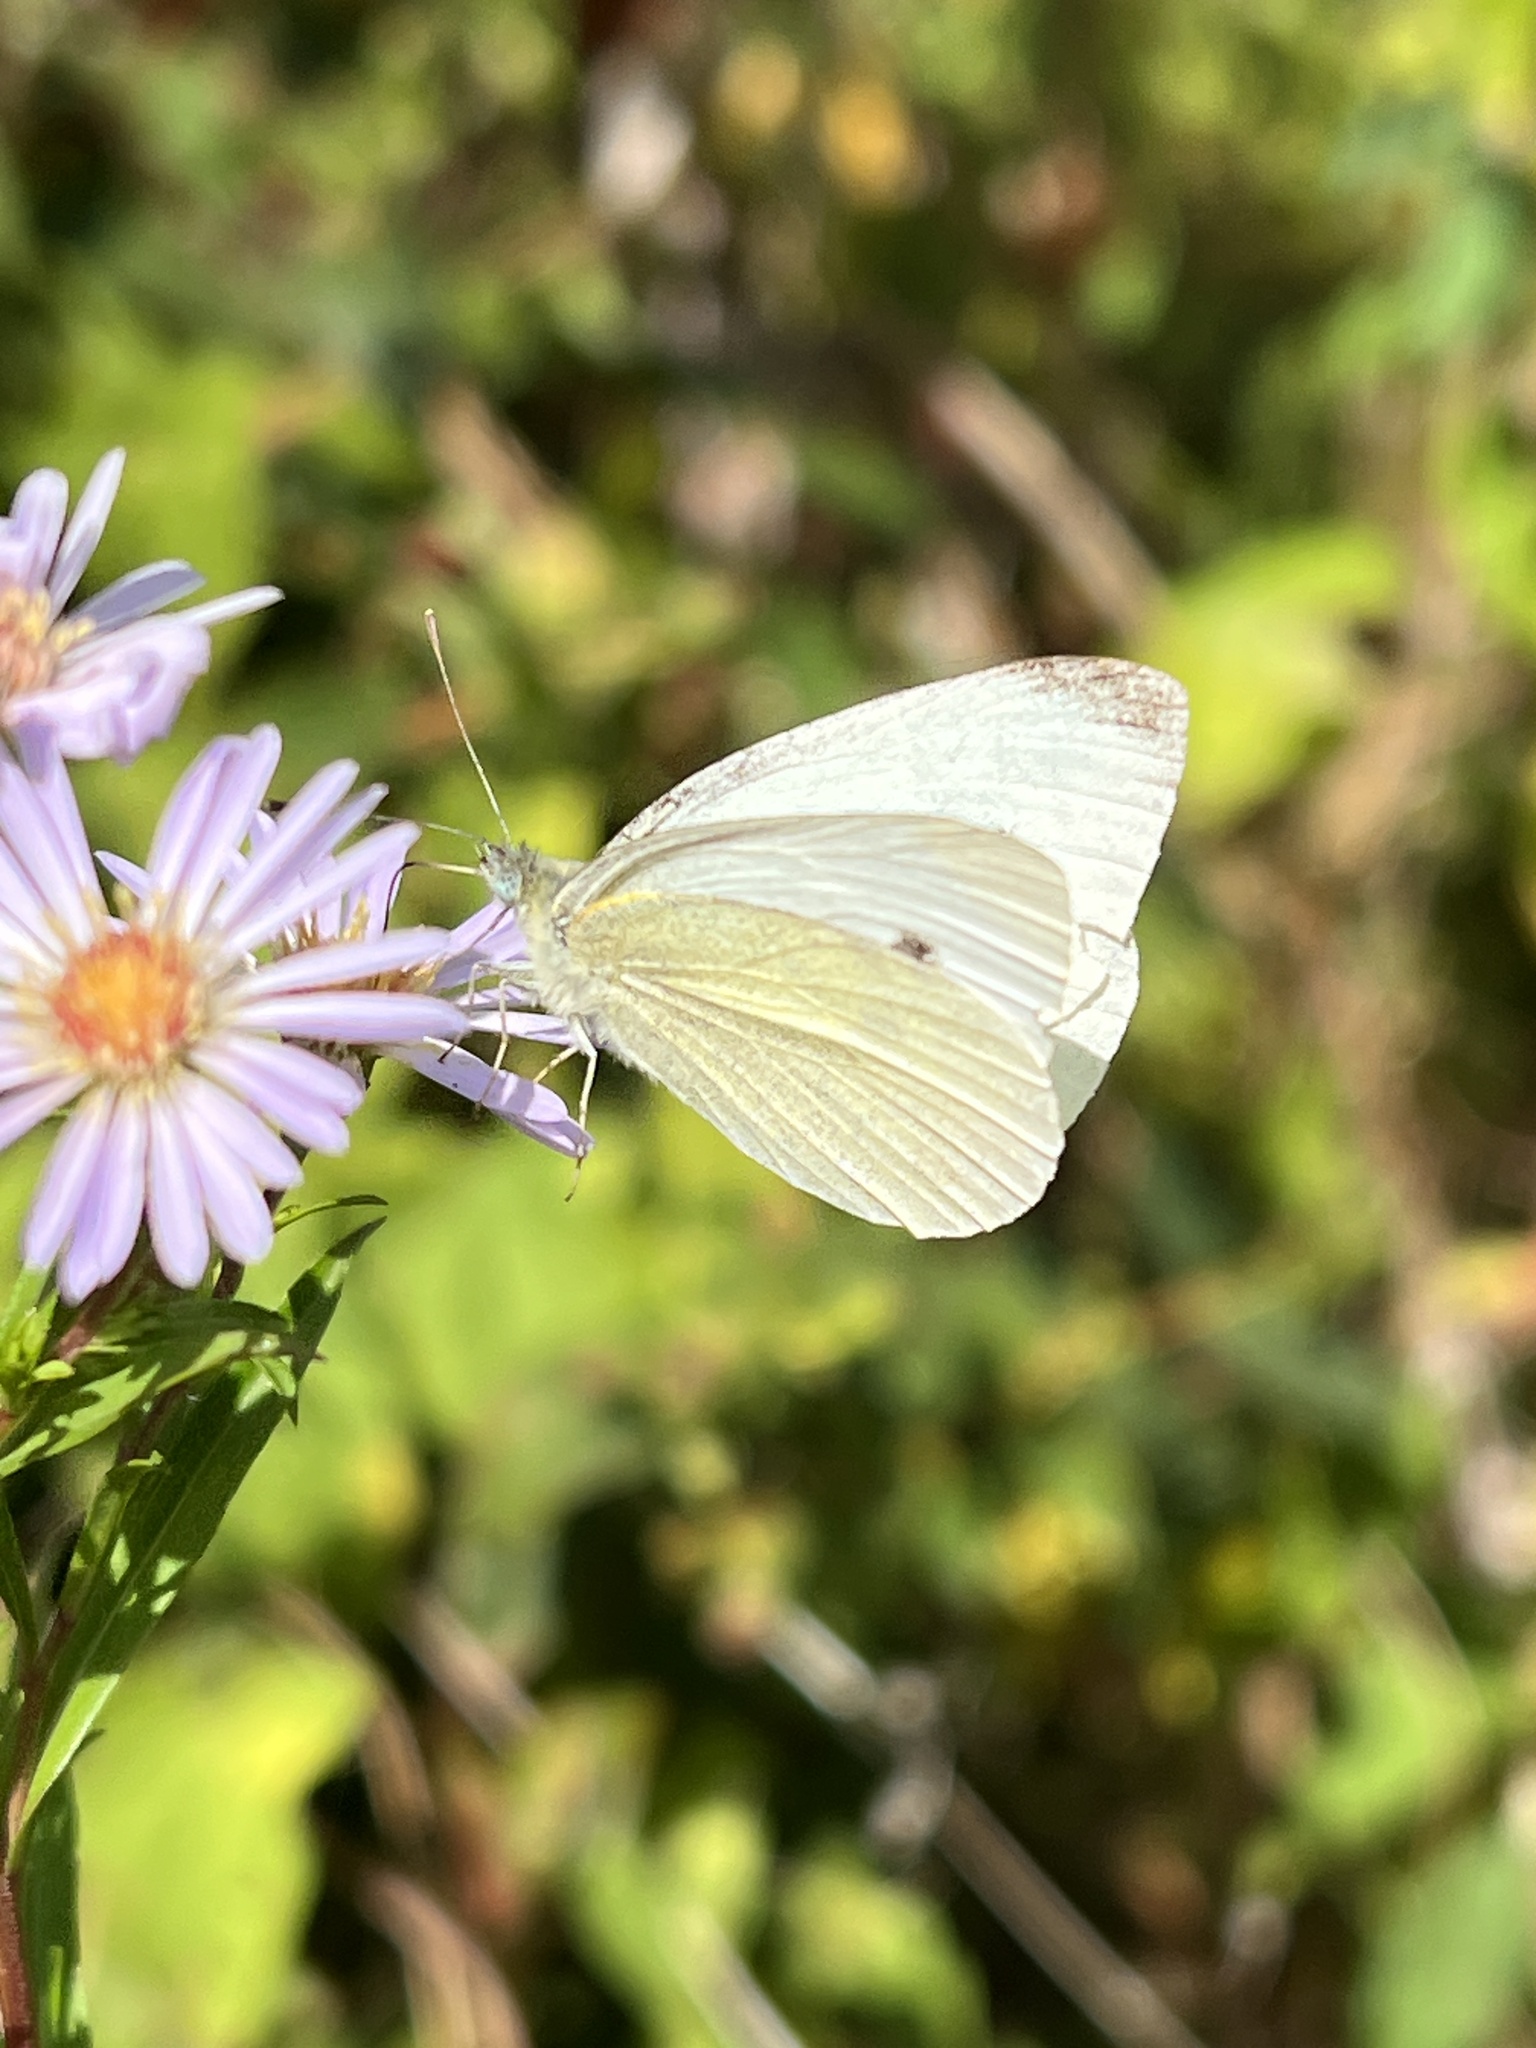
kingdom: Animalia
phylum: Arthropoda
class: Insecta
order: Lepidoptera
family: Pieridae
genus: Pieris
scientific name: Pieris rapae
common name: Small white
